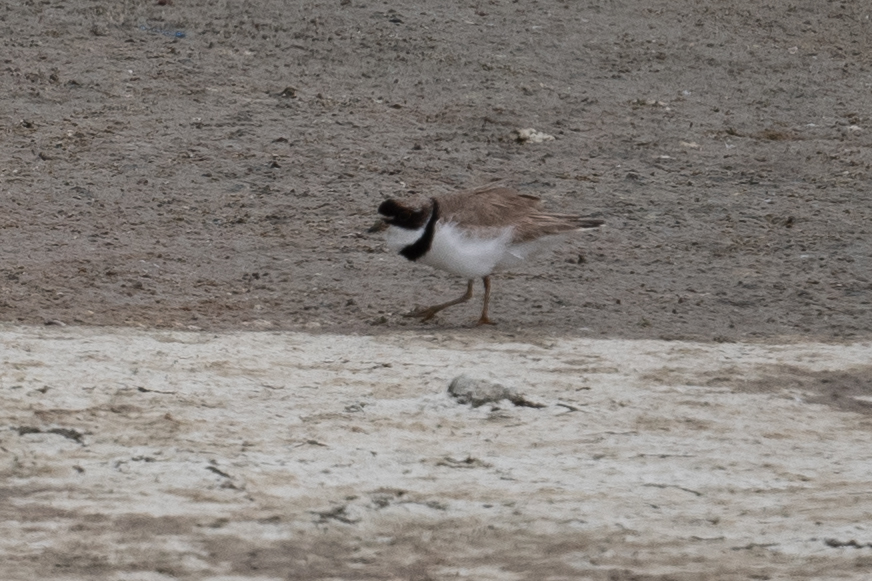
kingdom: Animalia
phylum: Chordata
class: Aves
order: Charadriiformes
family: Charadriidae
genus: Charadrius
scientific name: Charadrius semipalmatus
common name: Semipalmated plover
